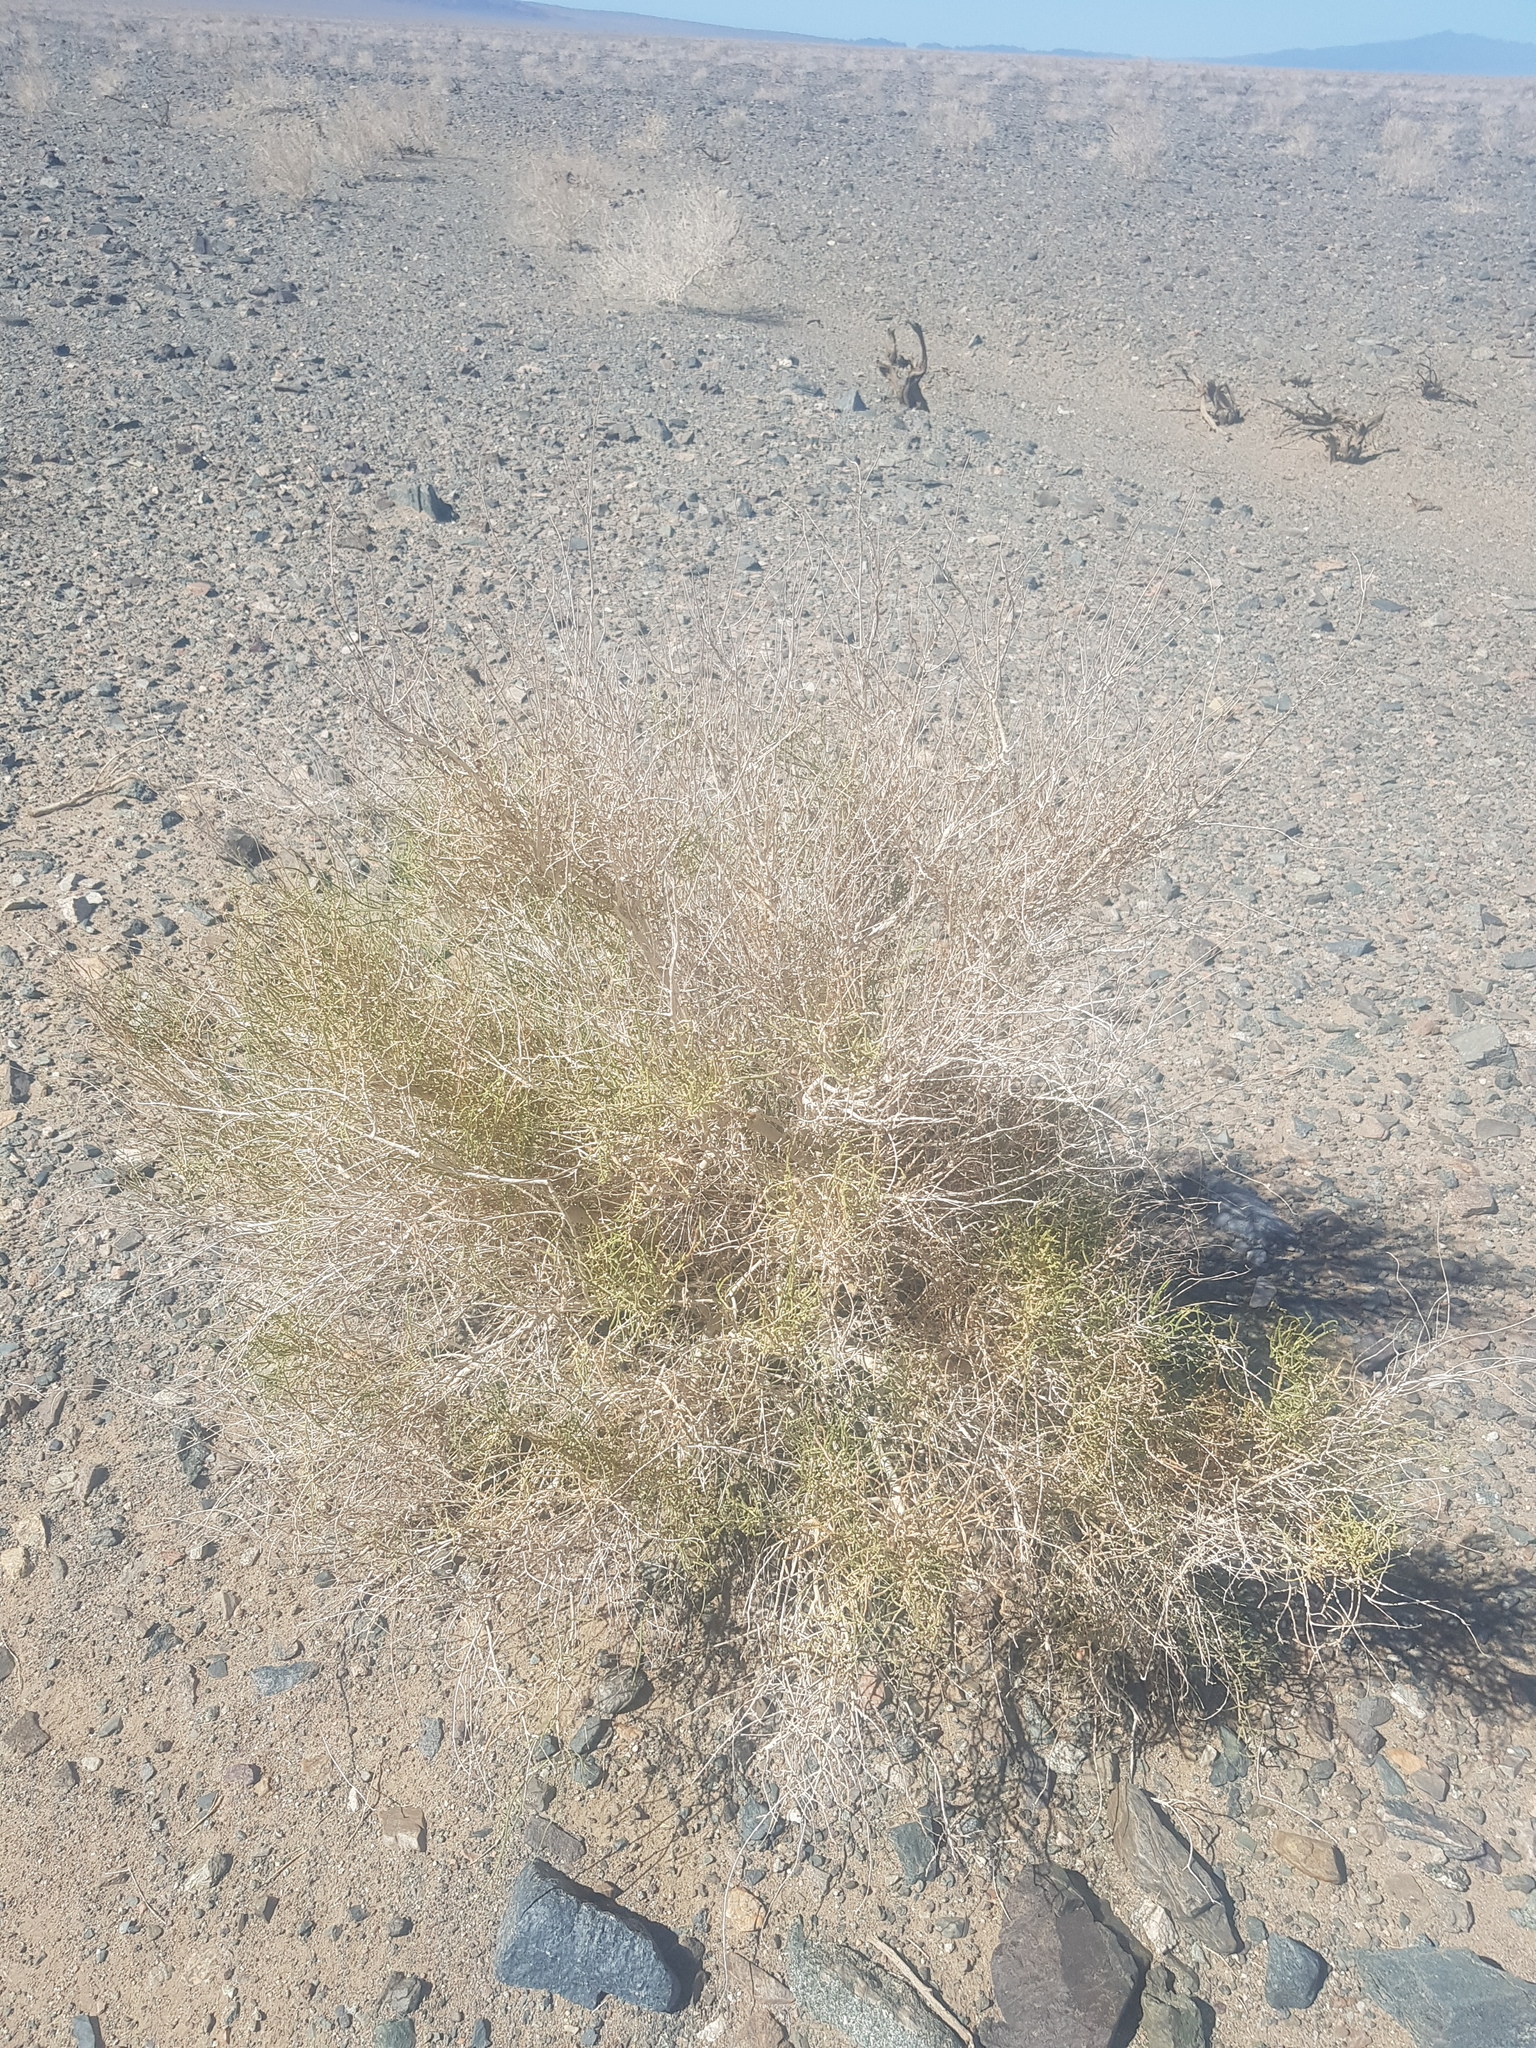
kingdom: Plantae
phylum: Tracheophyta
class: Magnoliopsida
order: Caryophyllales
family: Amaranthaceae
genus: Haloxylon
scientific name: Haloxylon ammodendron
